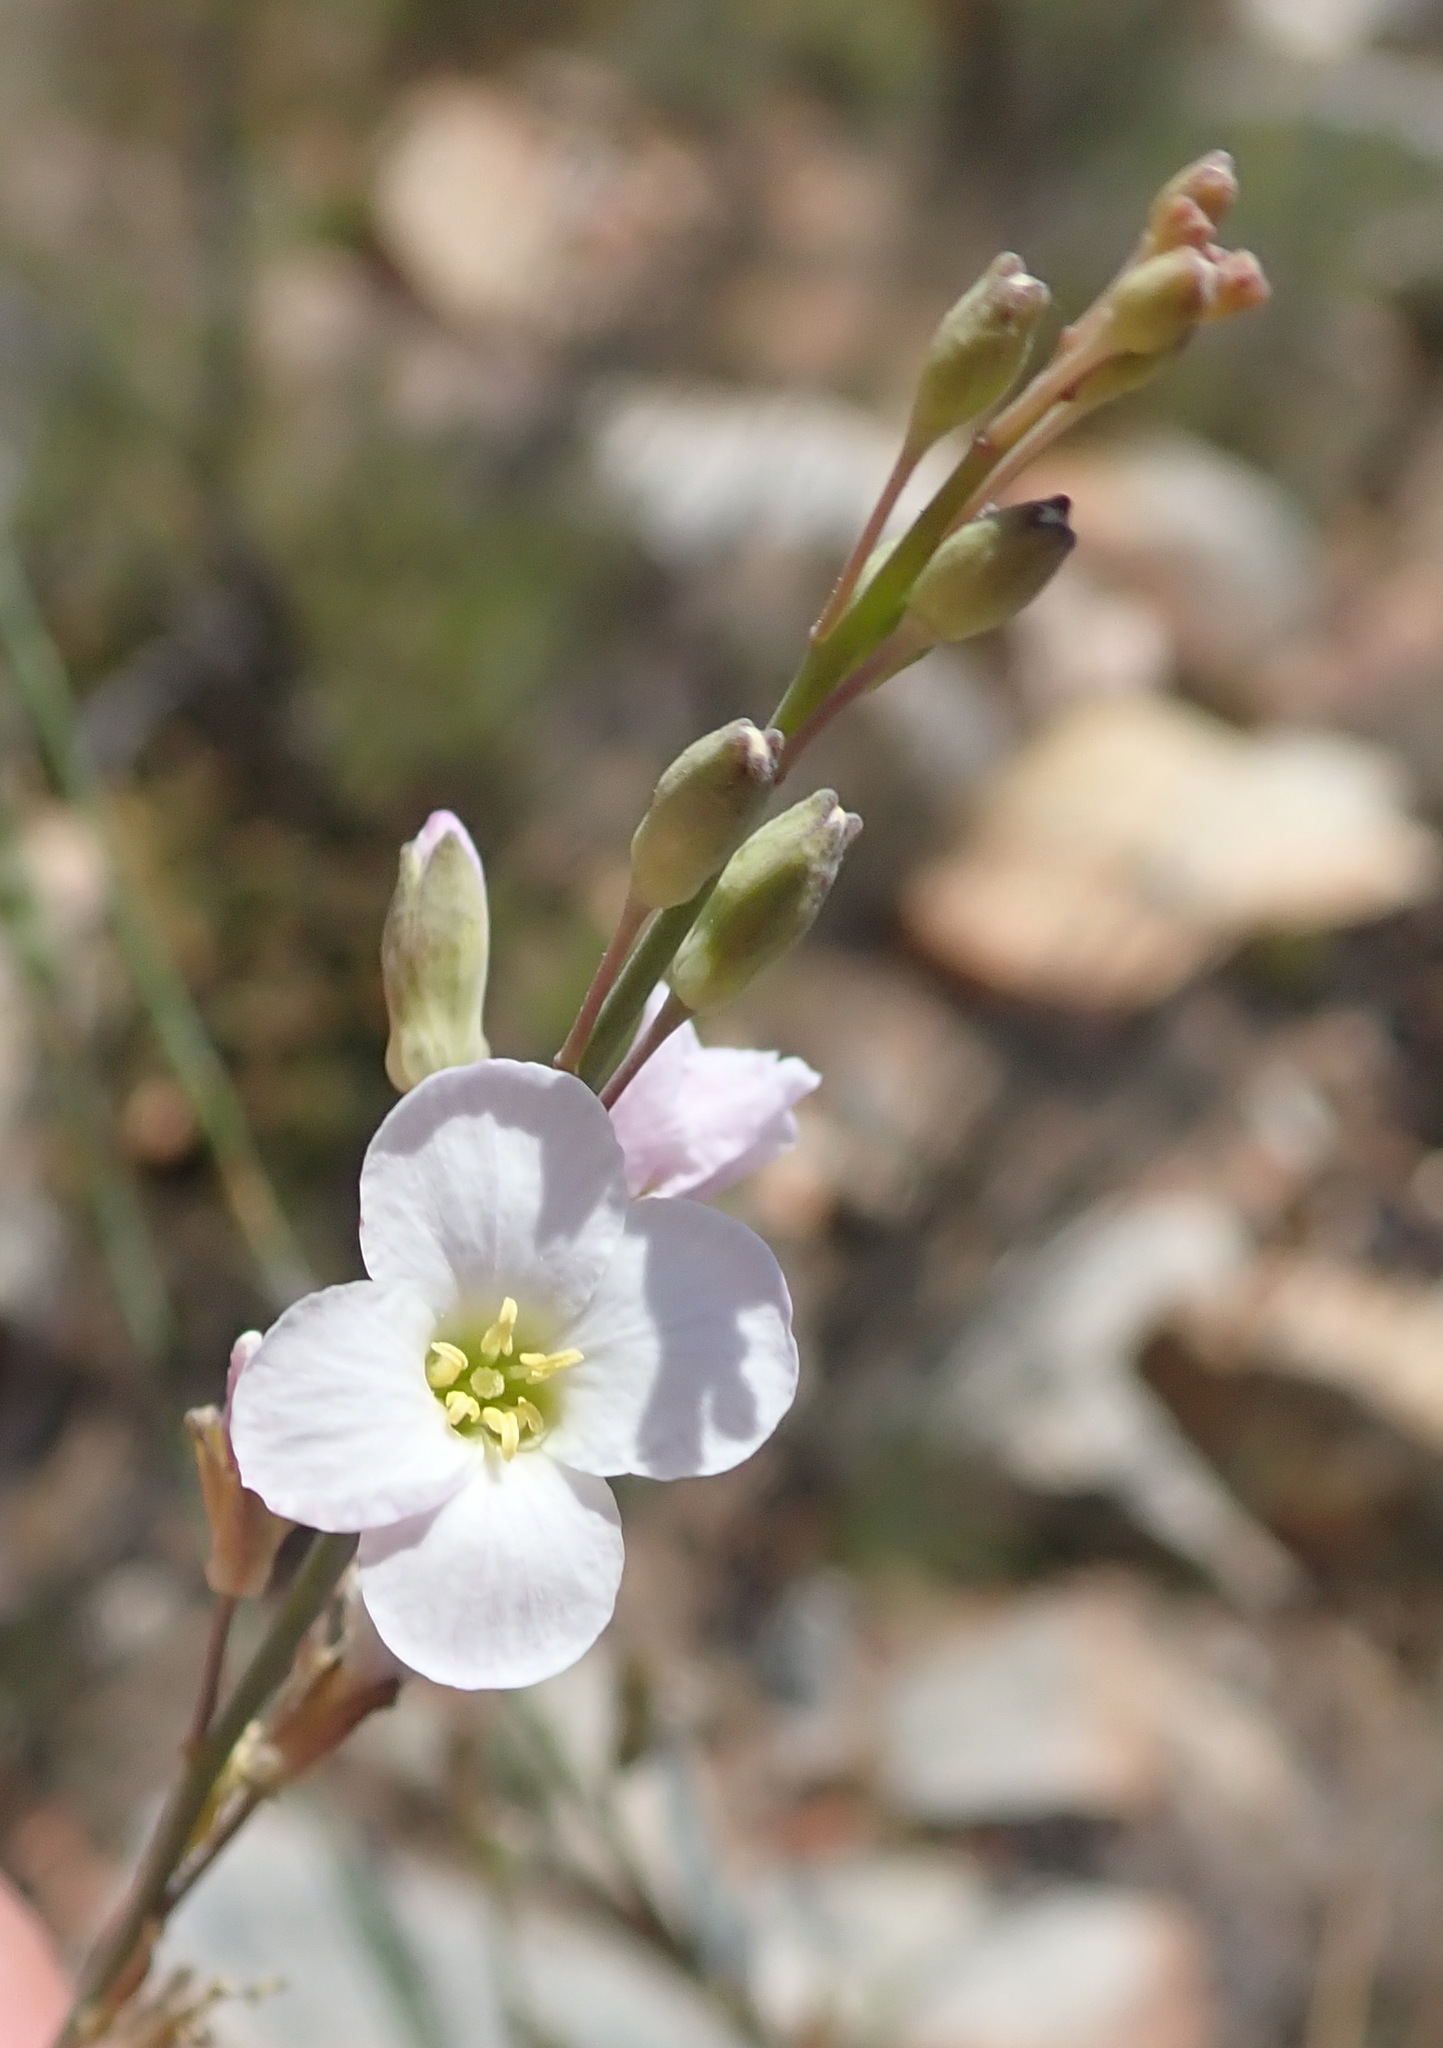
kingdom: Plantae
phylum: Tracheophyta
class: Magnoliopsida
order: Brassicales
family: Brassicaceae
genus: Heliophila
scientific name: Heliophila glauca
